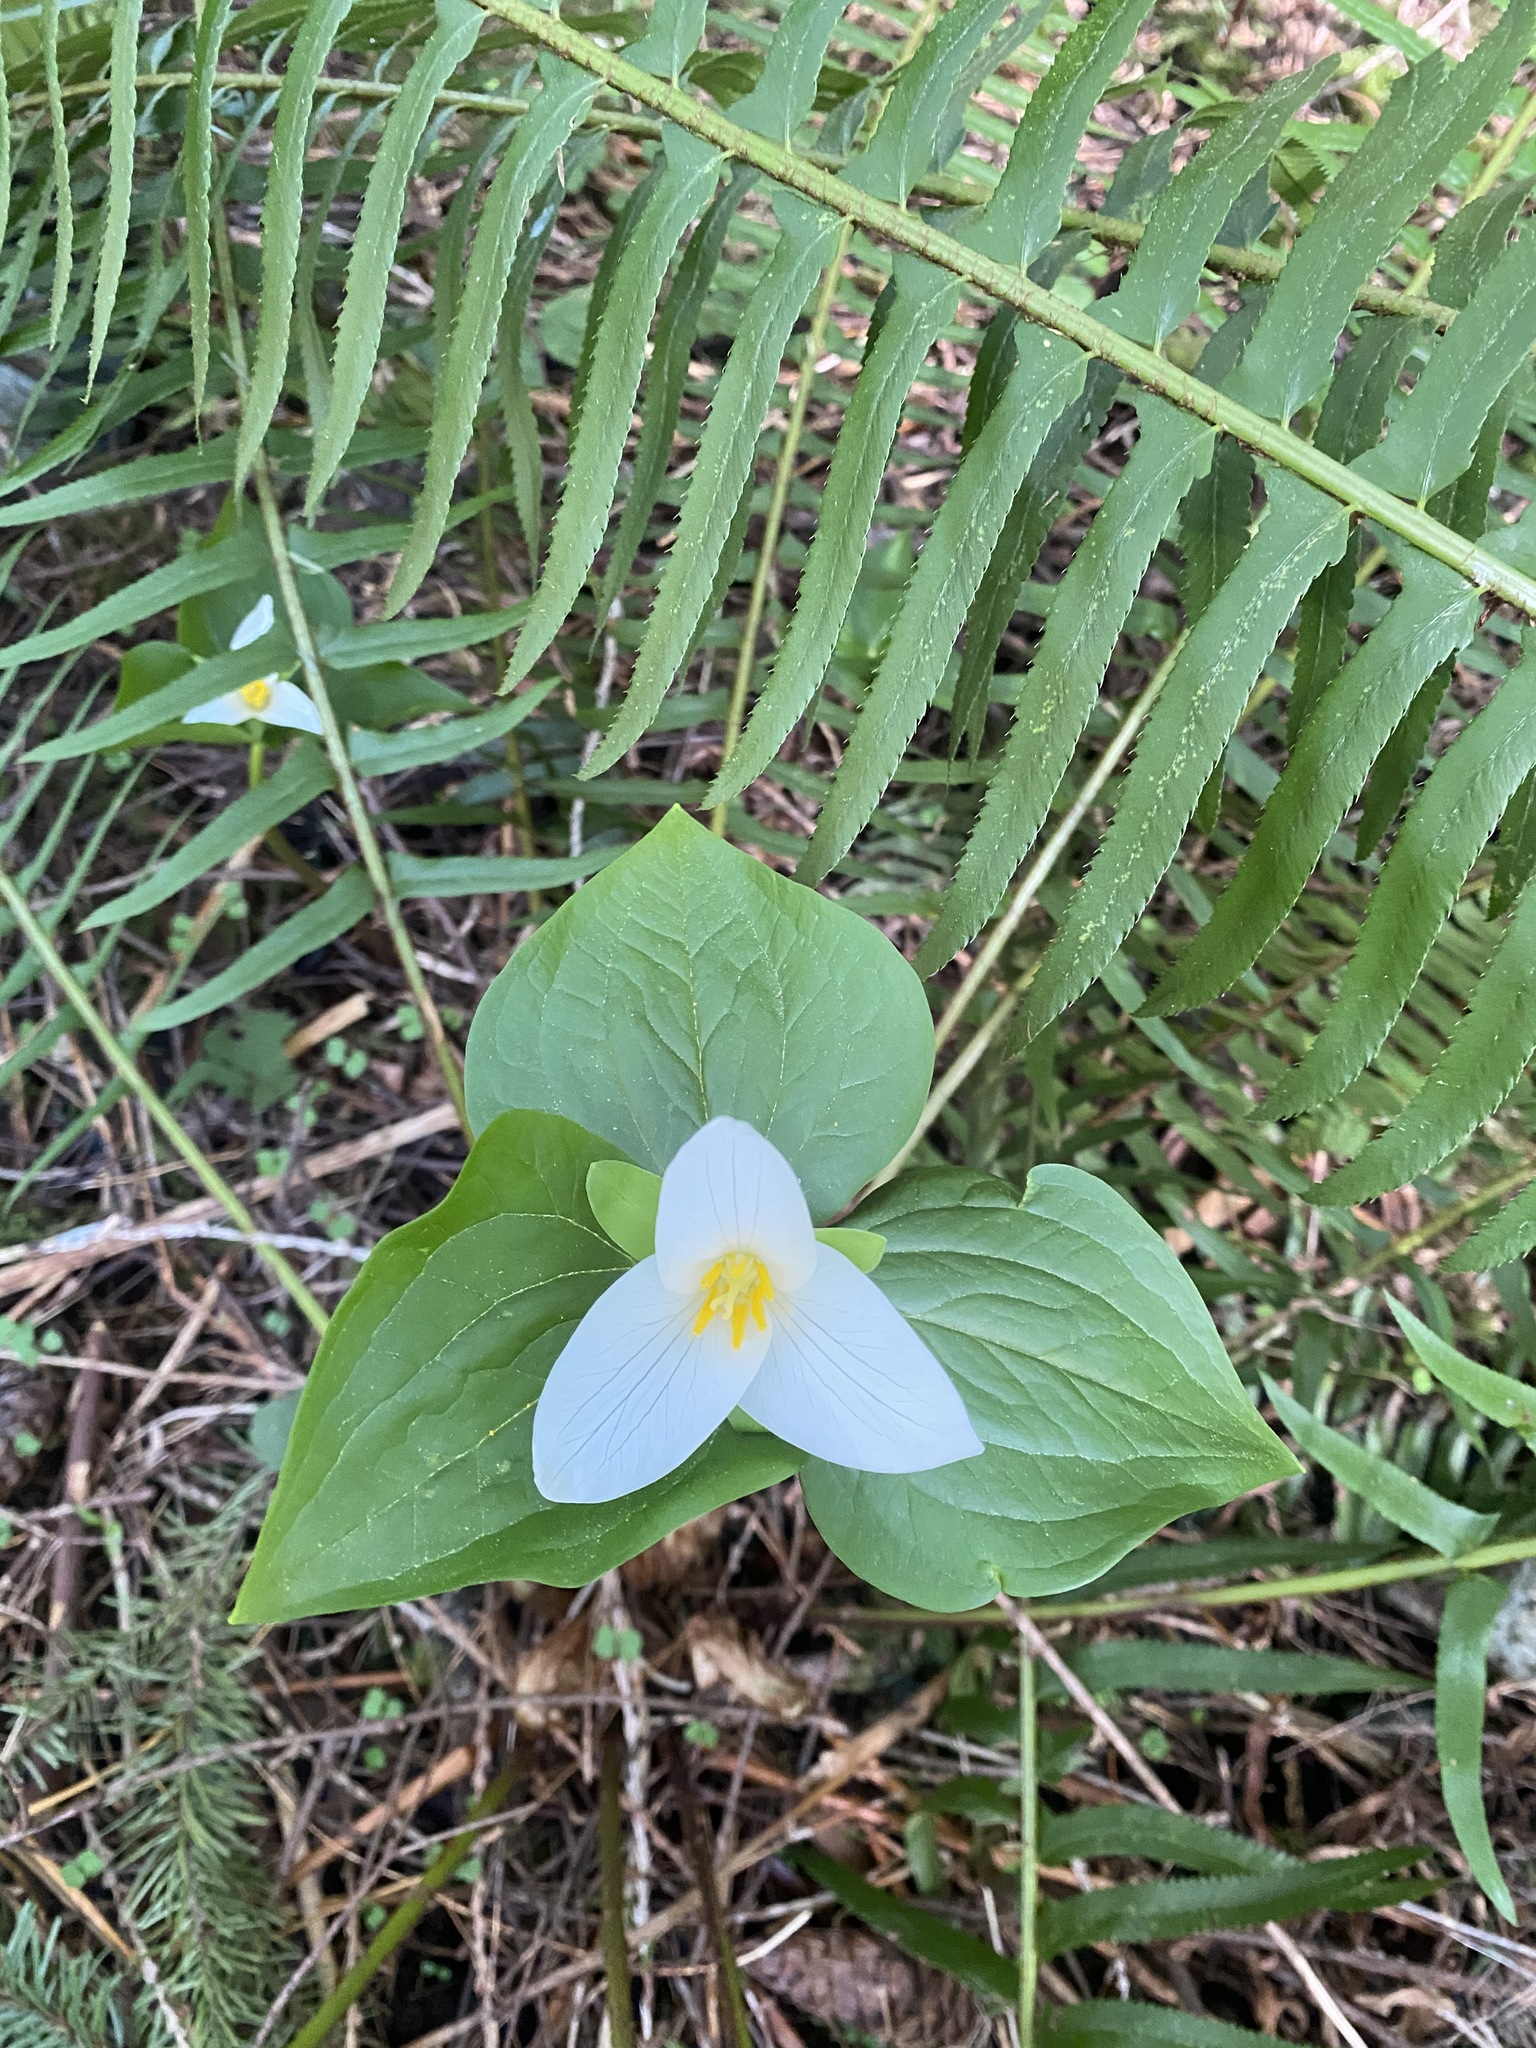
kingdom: Plantae
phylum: Tracheophyta
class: Liliopsida
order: Liliales
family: Melanthiaceae
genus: Trillium
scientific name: Trillium ovatum
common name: Pacific trillium
